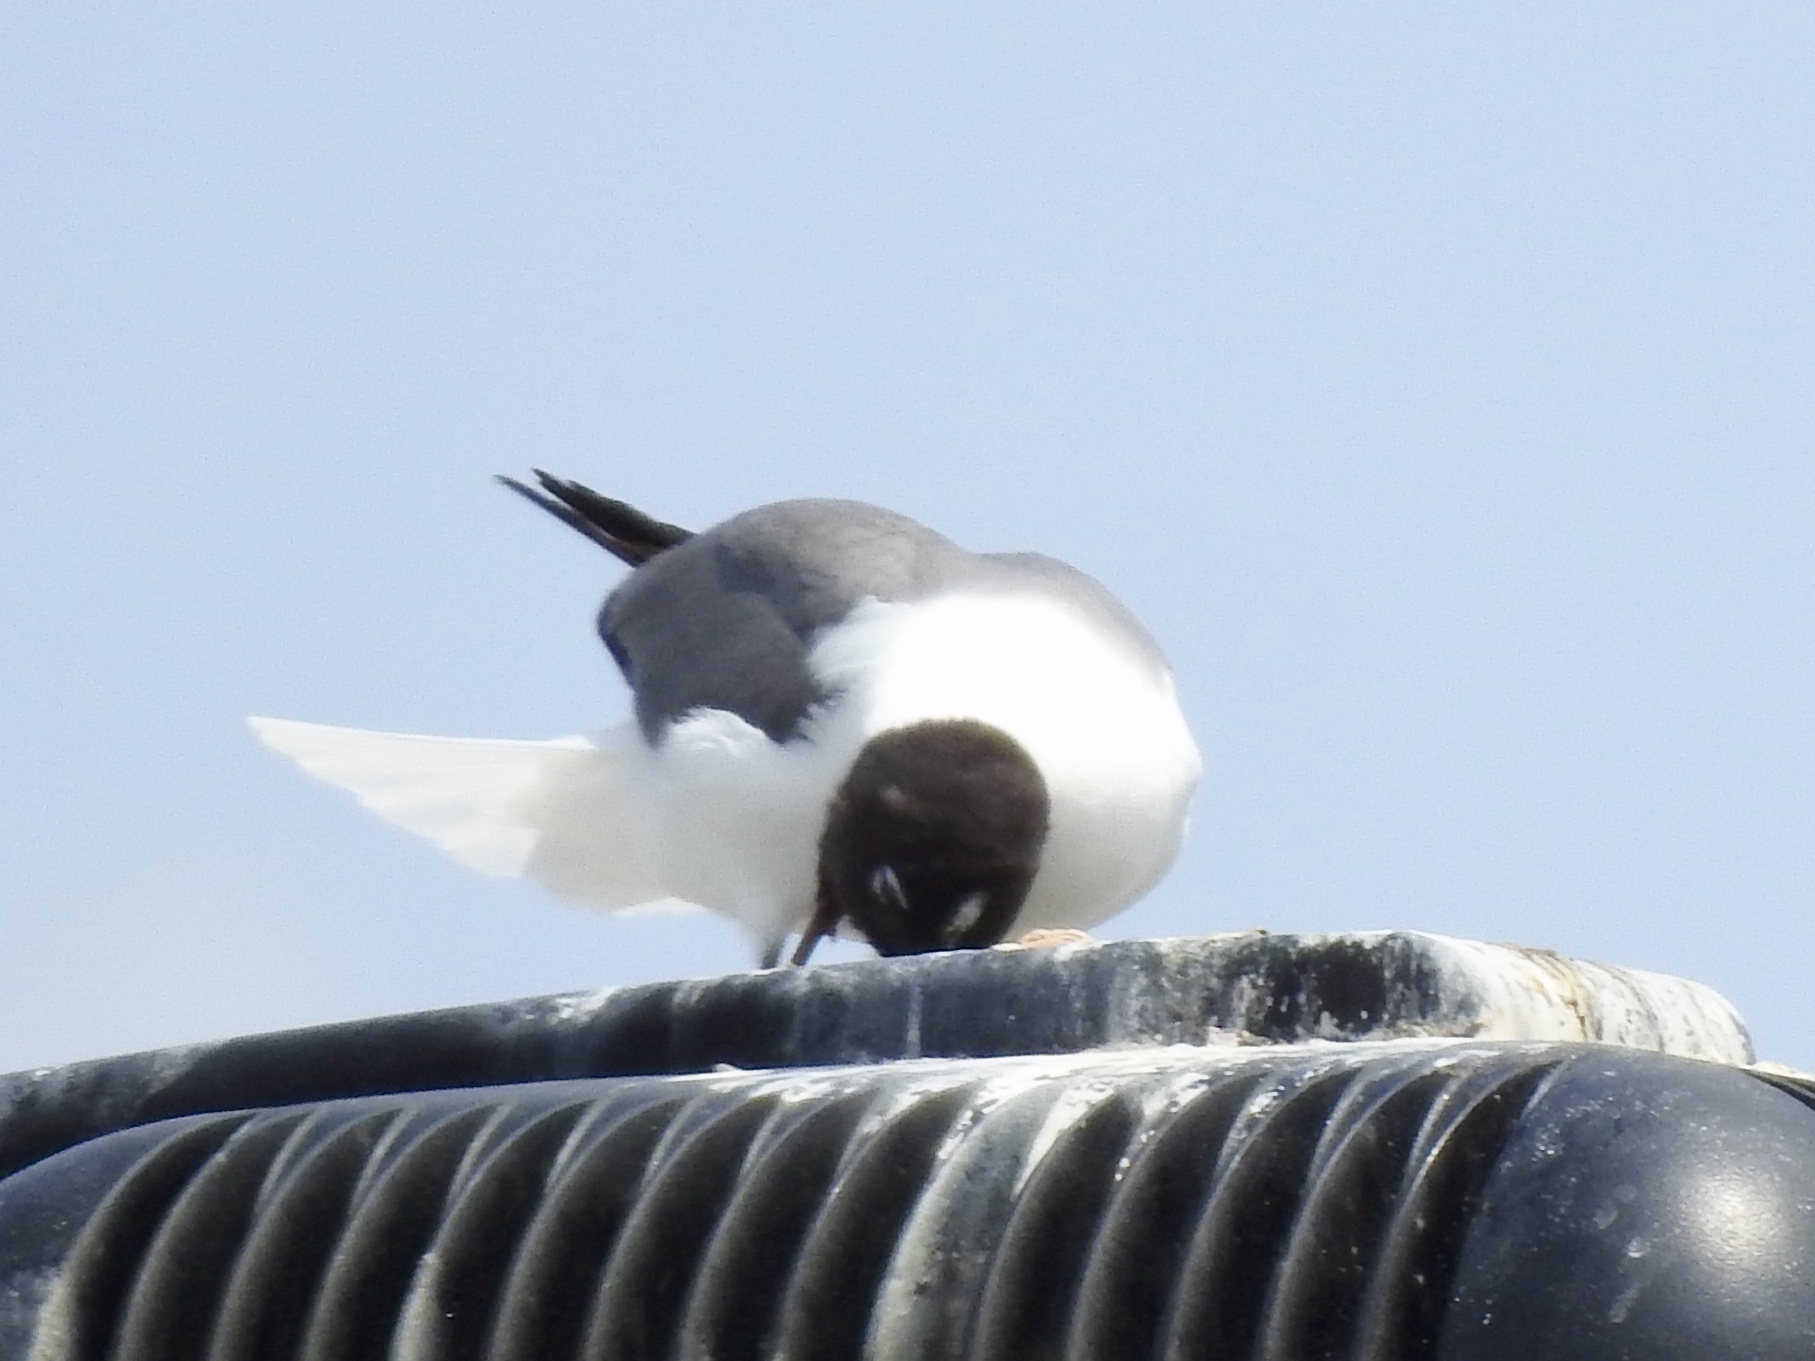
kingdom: Animalia
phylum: Chordata
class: Aves
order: Charadriiformes
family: Laridae
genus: Leucophaeus
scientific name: Leucophaeus atricilla
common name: Laughing gull
